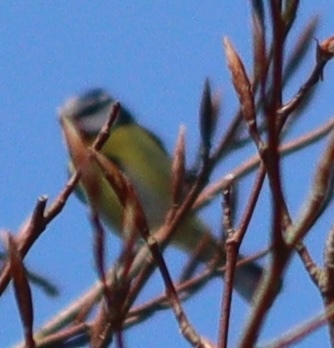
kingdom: Animalia
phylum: Chordata
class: Aves
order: Passeriformes
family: Paridae
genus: Cyanistes
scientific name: Cyanistes caeruleus
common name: Eurasian blue tit
